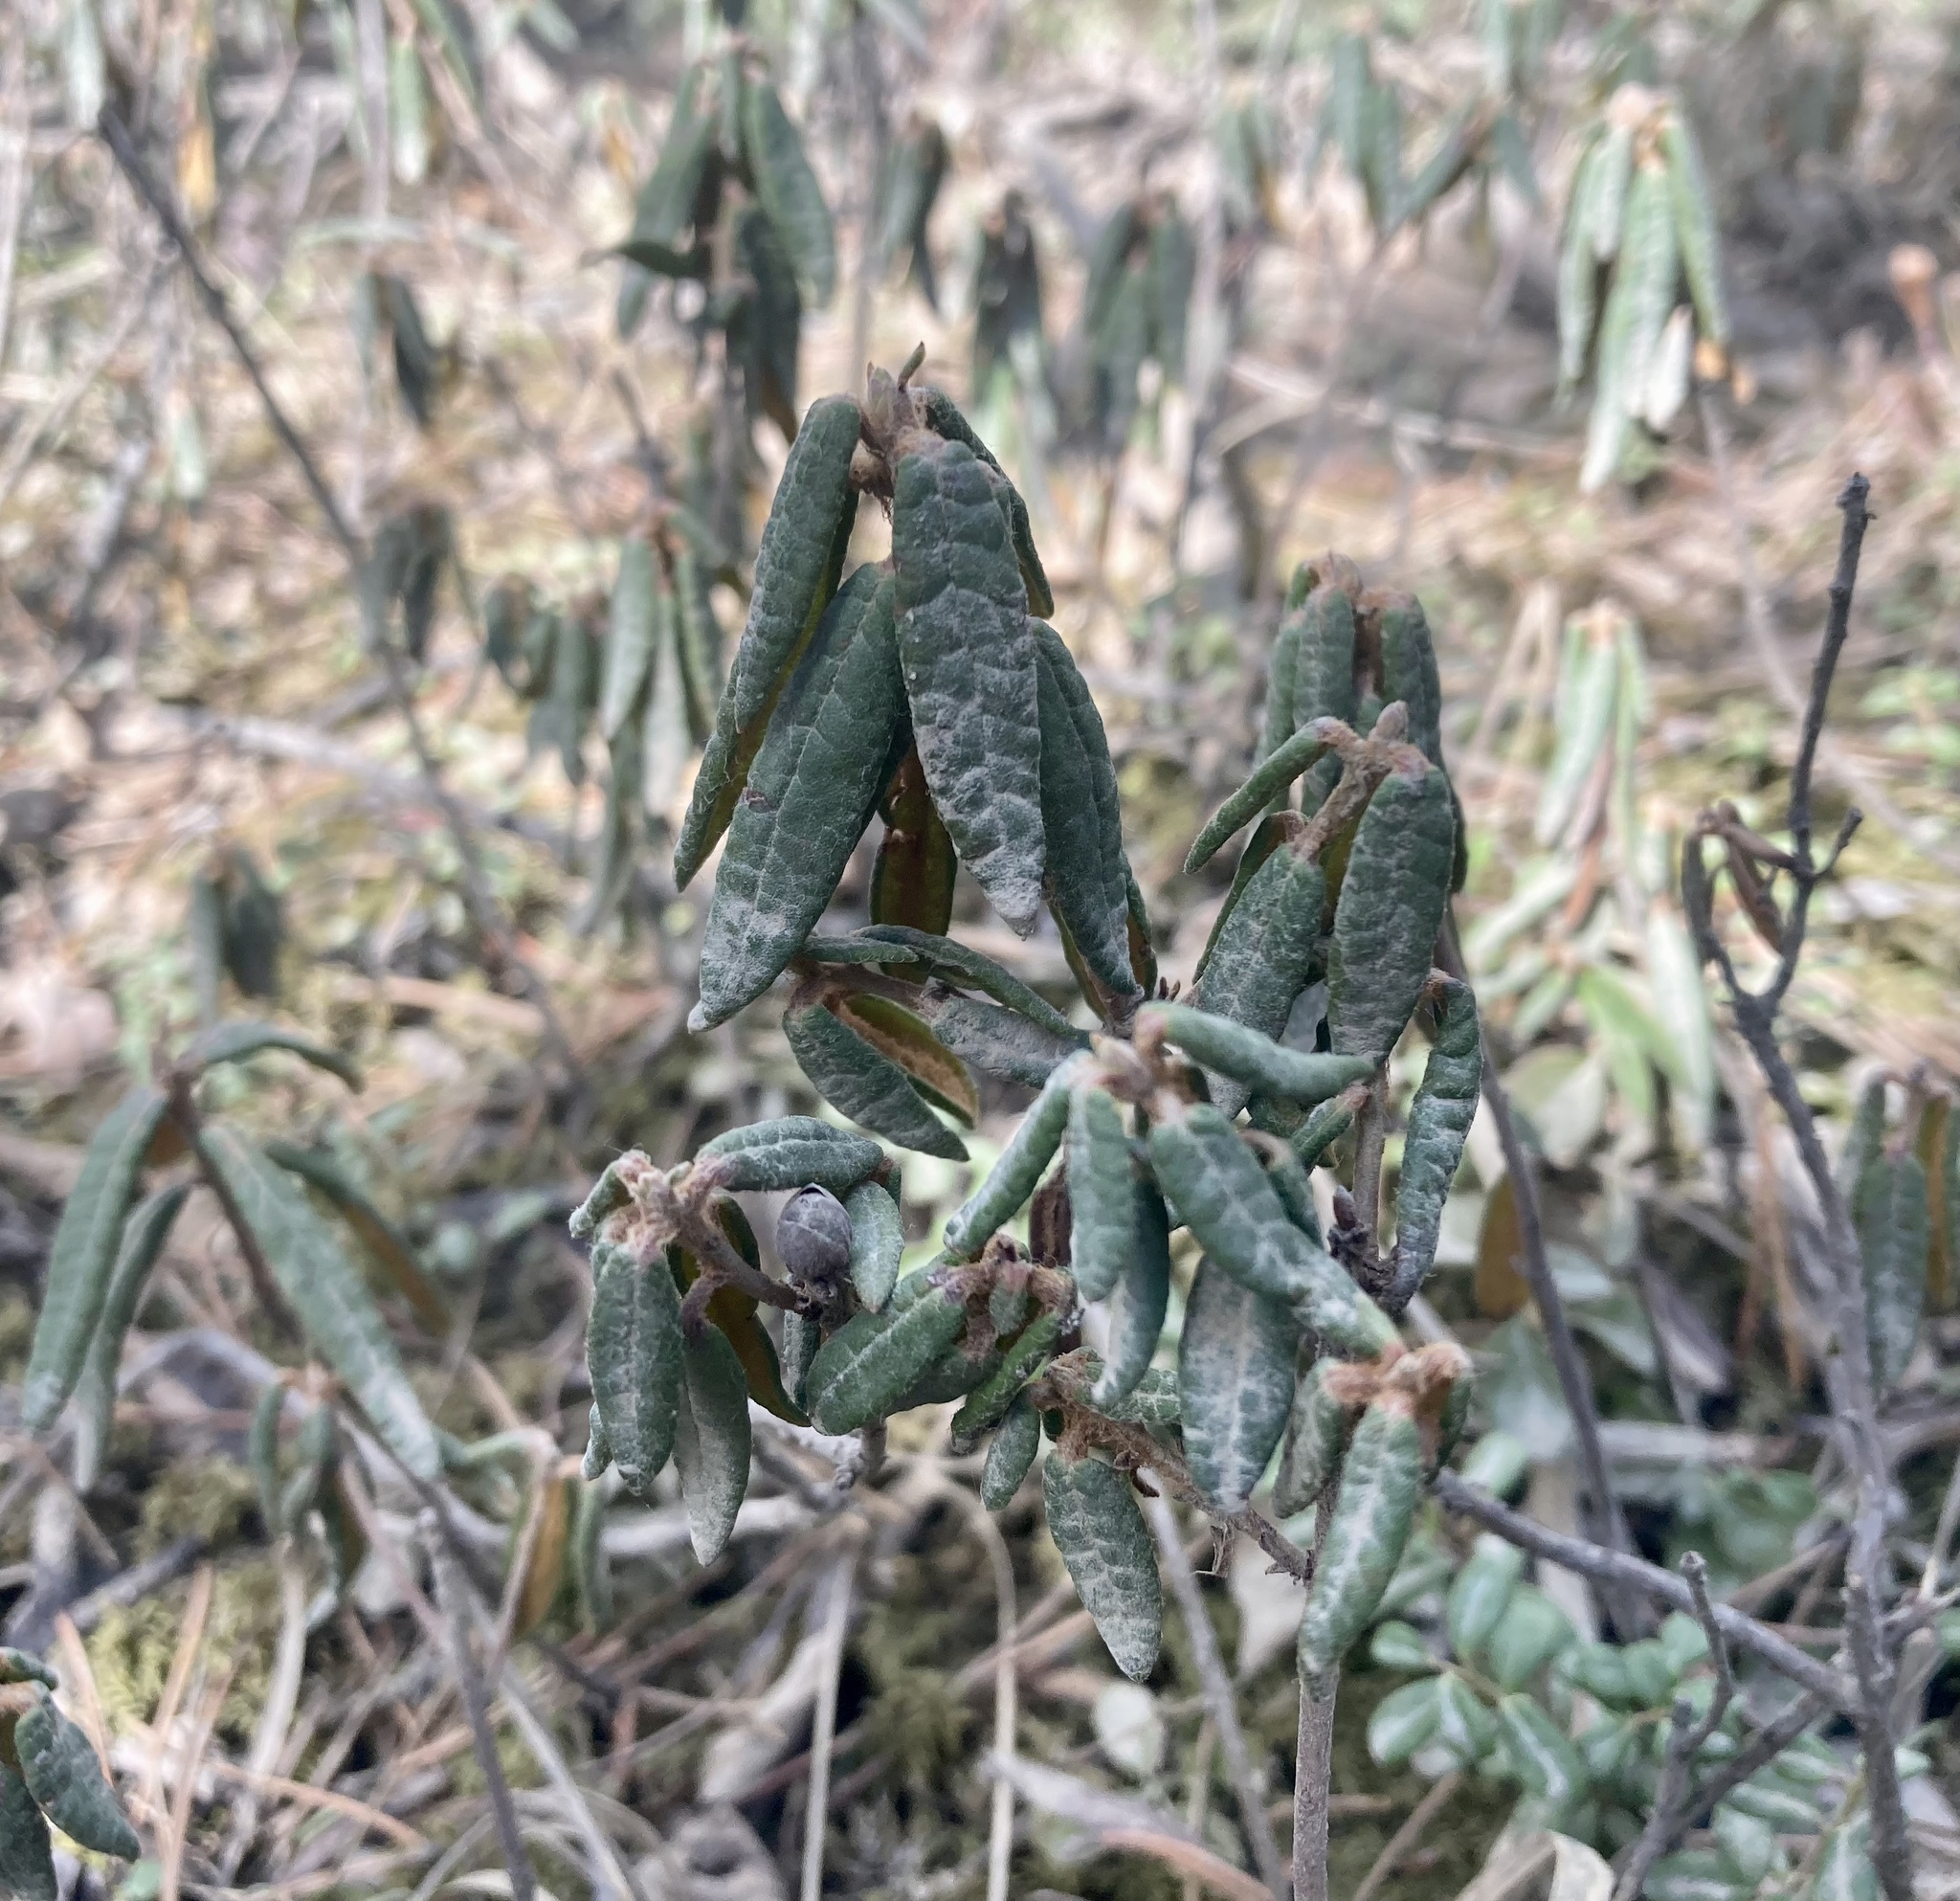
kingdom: Plantae
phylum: Tracheophyta
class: Magnoliopsida
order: Ericales
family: Ericaceae
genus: Rhododendron
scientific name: Rhododendron groenlandicum
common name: Bog labrador tea
